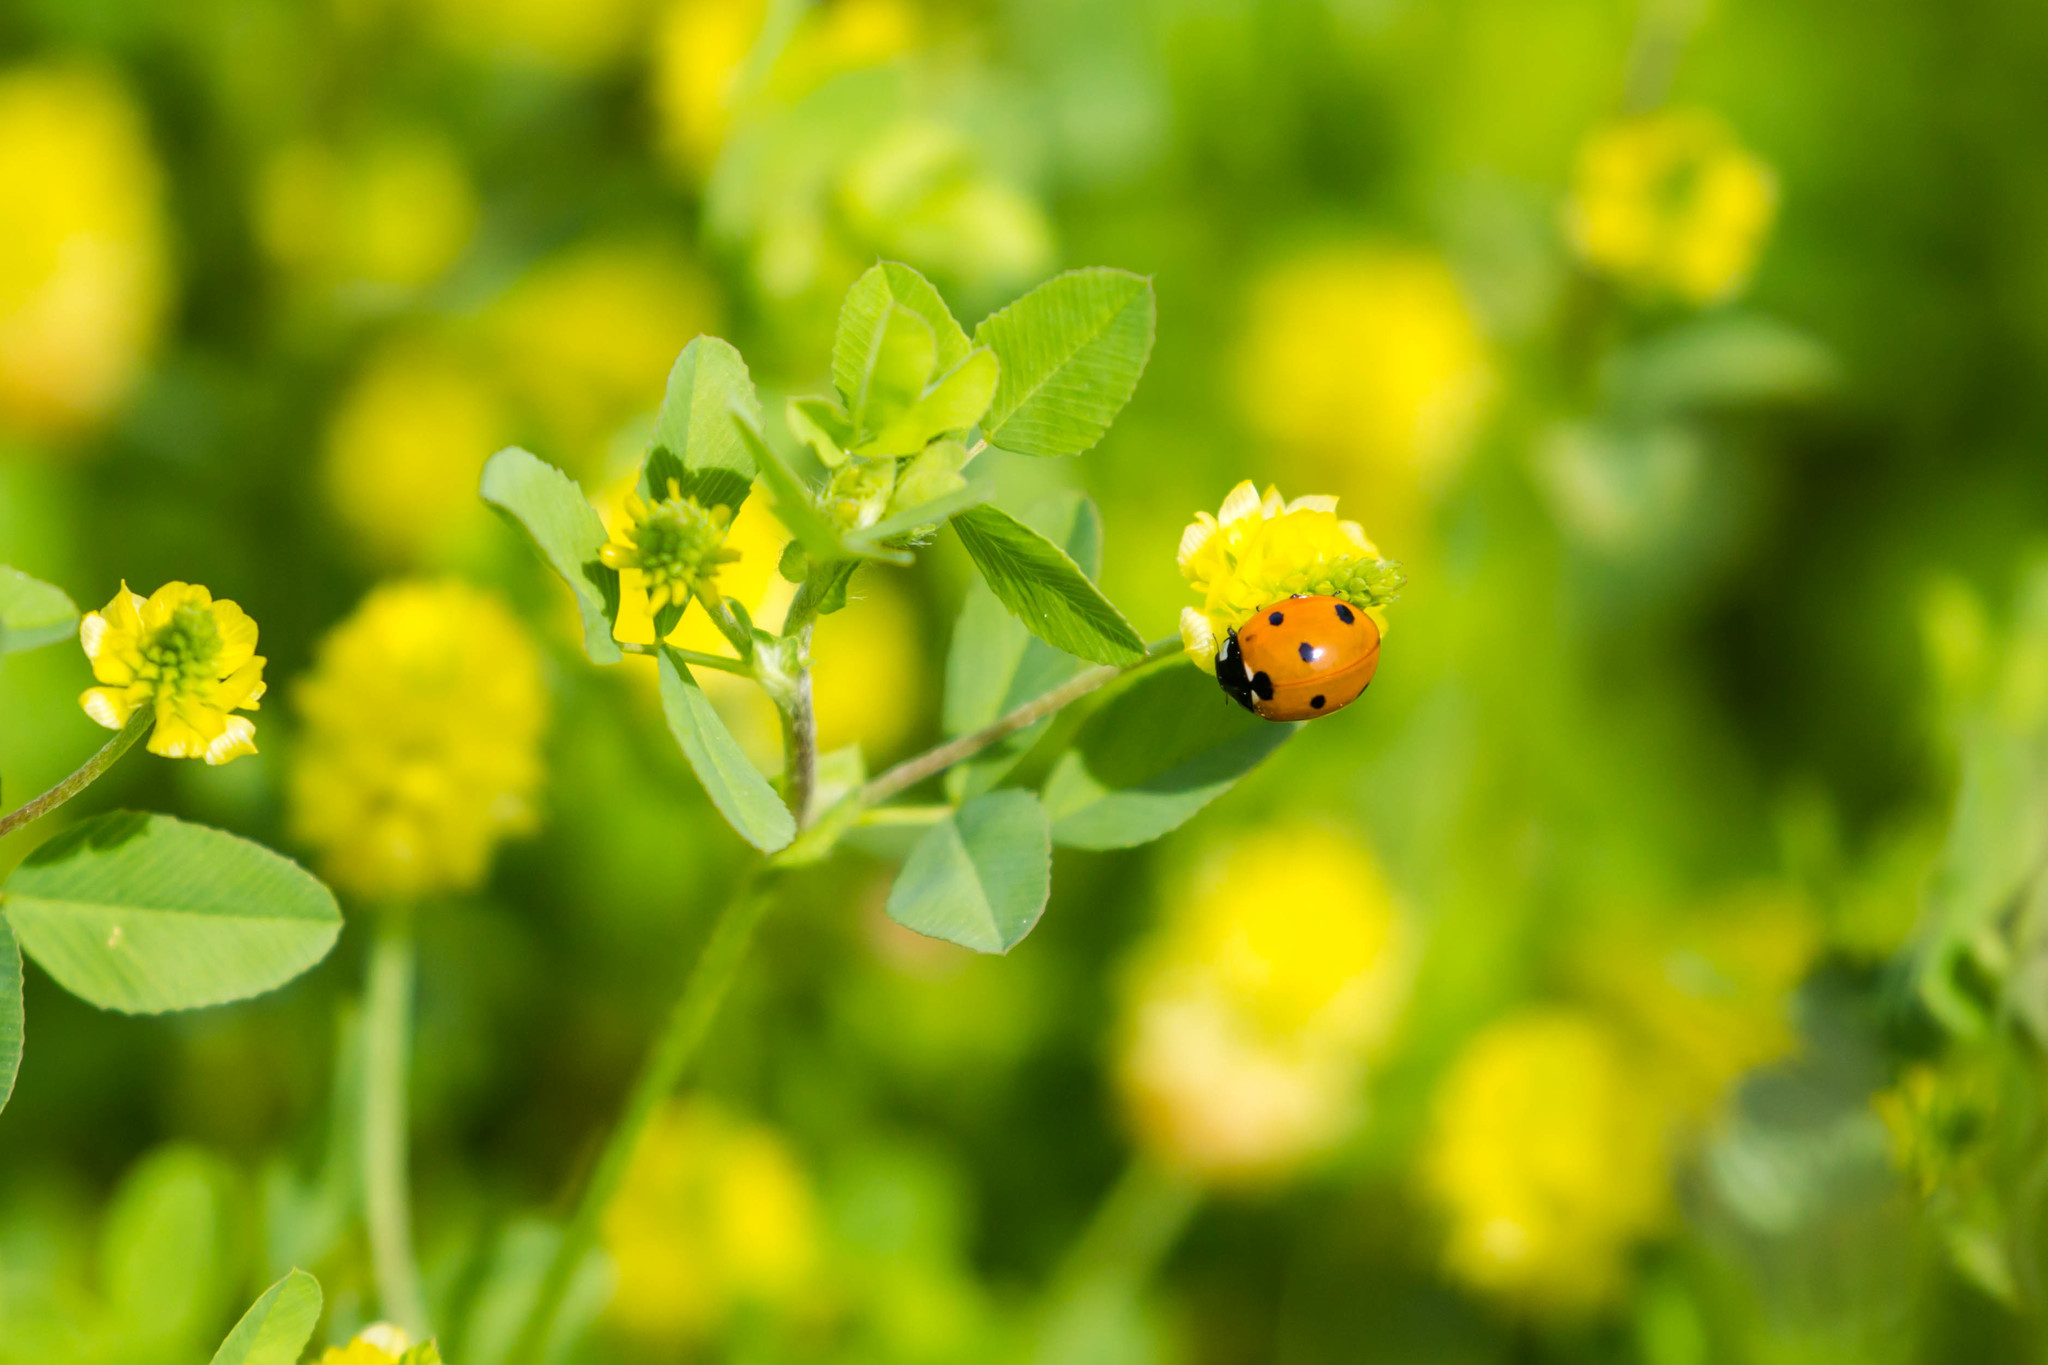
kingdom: Animalia
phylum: Arthropoda
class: Insecta
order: Coleoptera
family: Coccinellidae
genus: Coccinella
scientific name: Coccinella septempunctata
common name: Sevenspotted lady beetle
